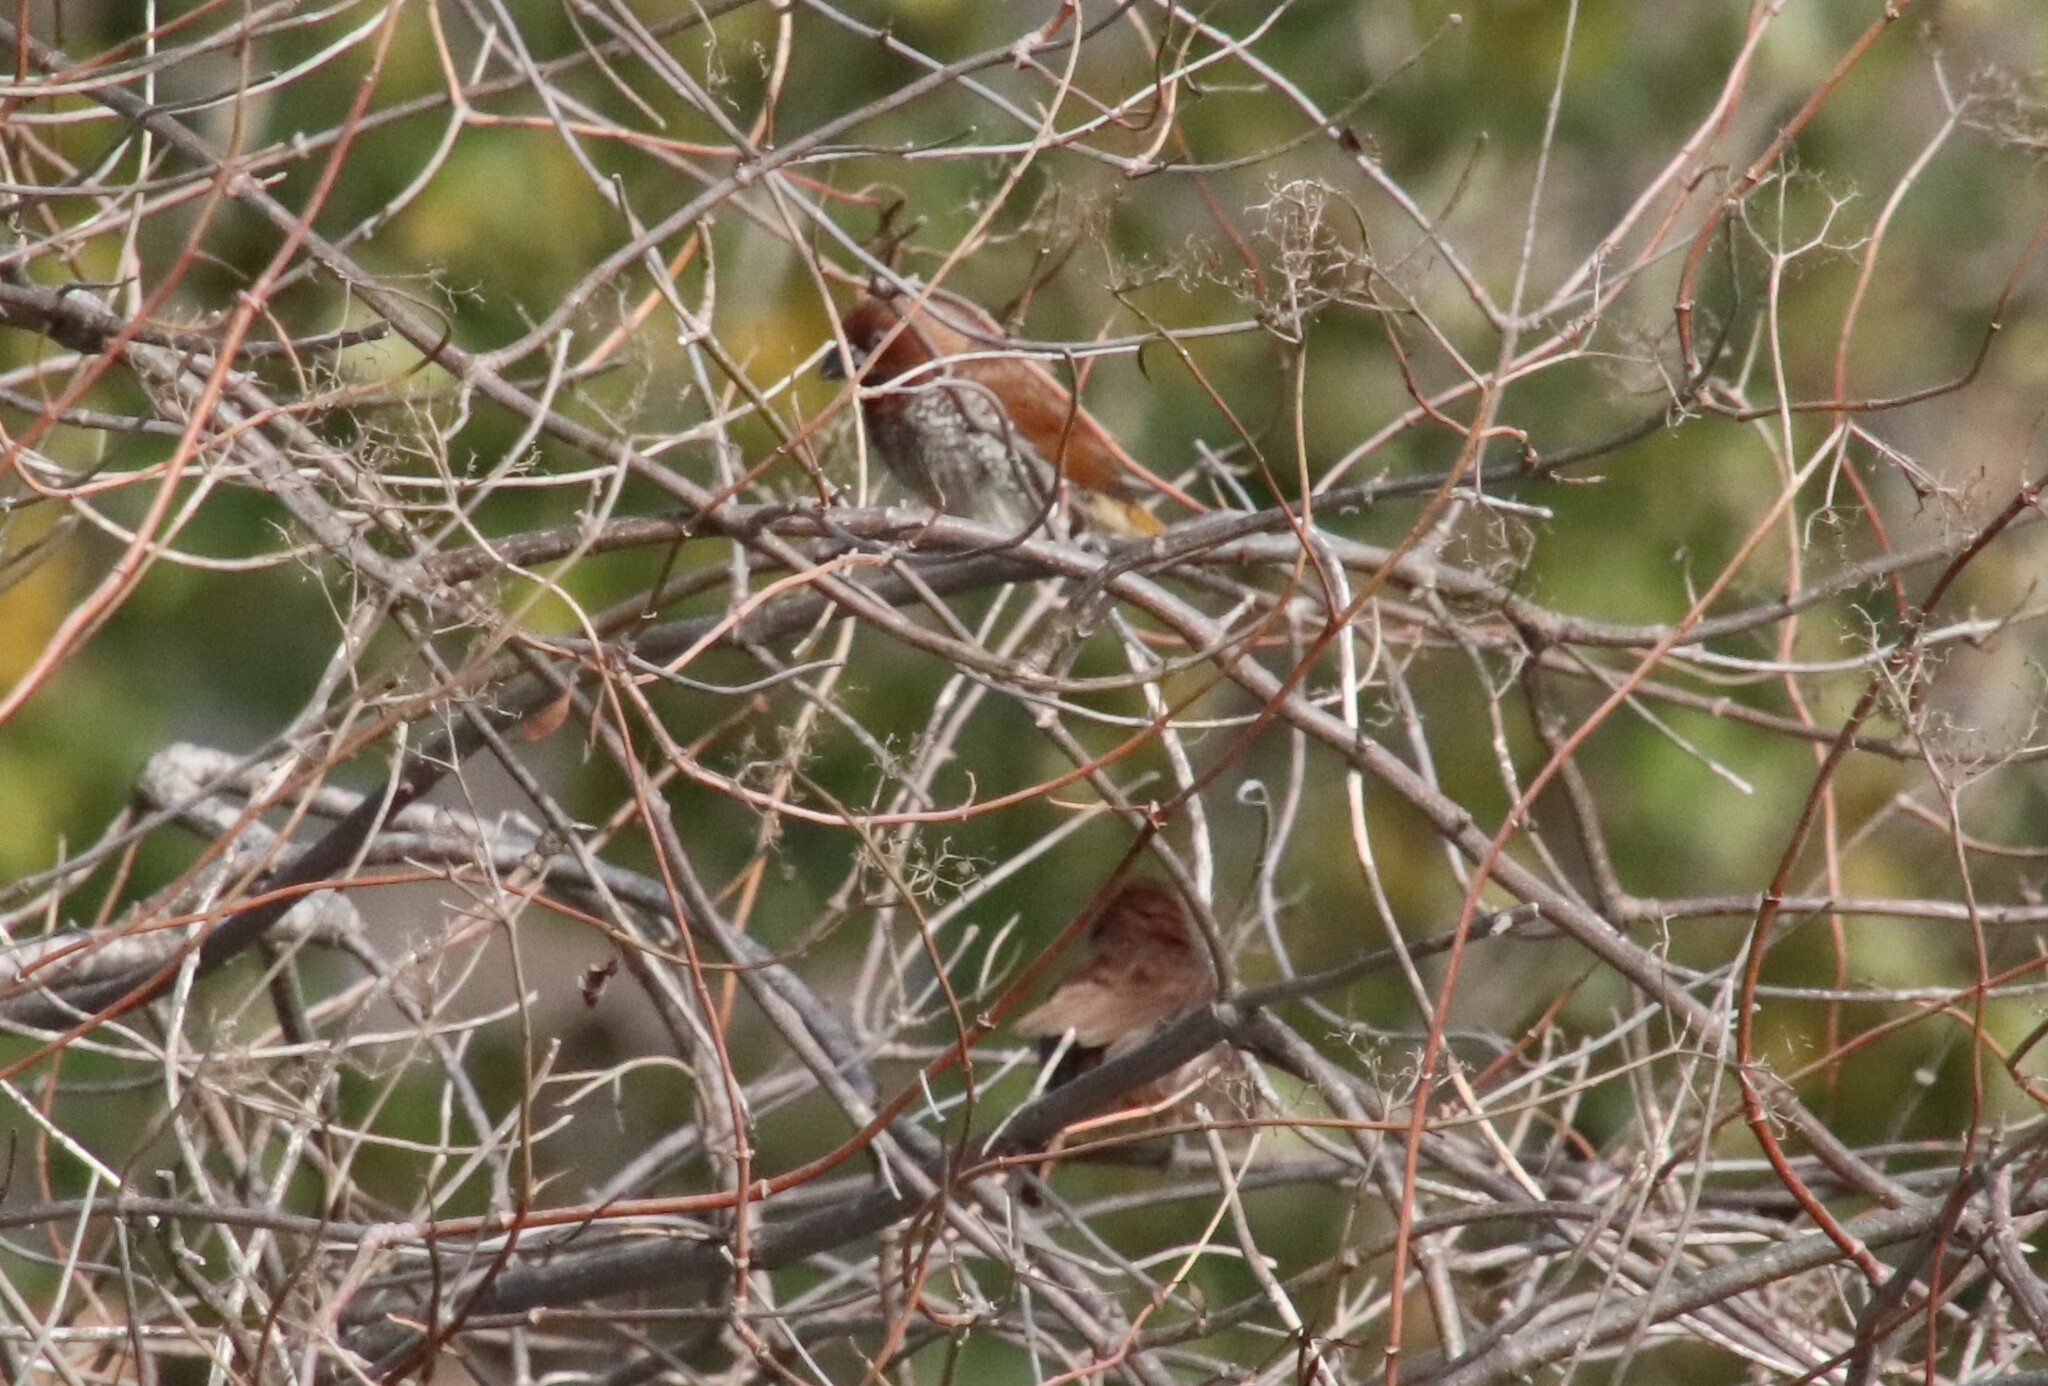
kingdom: Animalia
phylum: Chordata
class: Aves
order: Passeriformes
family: Estrildidae
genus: Lonchura
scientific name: Lonchura punctulata
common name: Scaly-breasted munia
